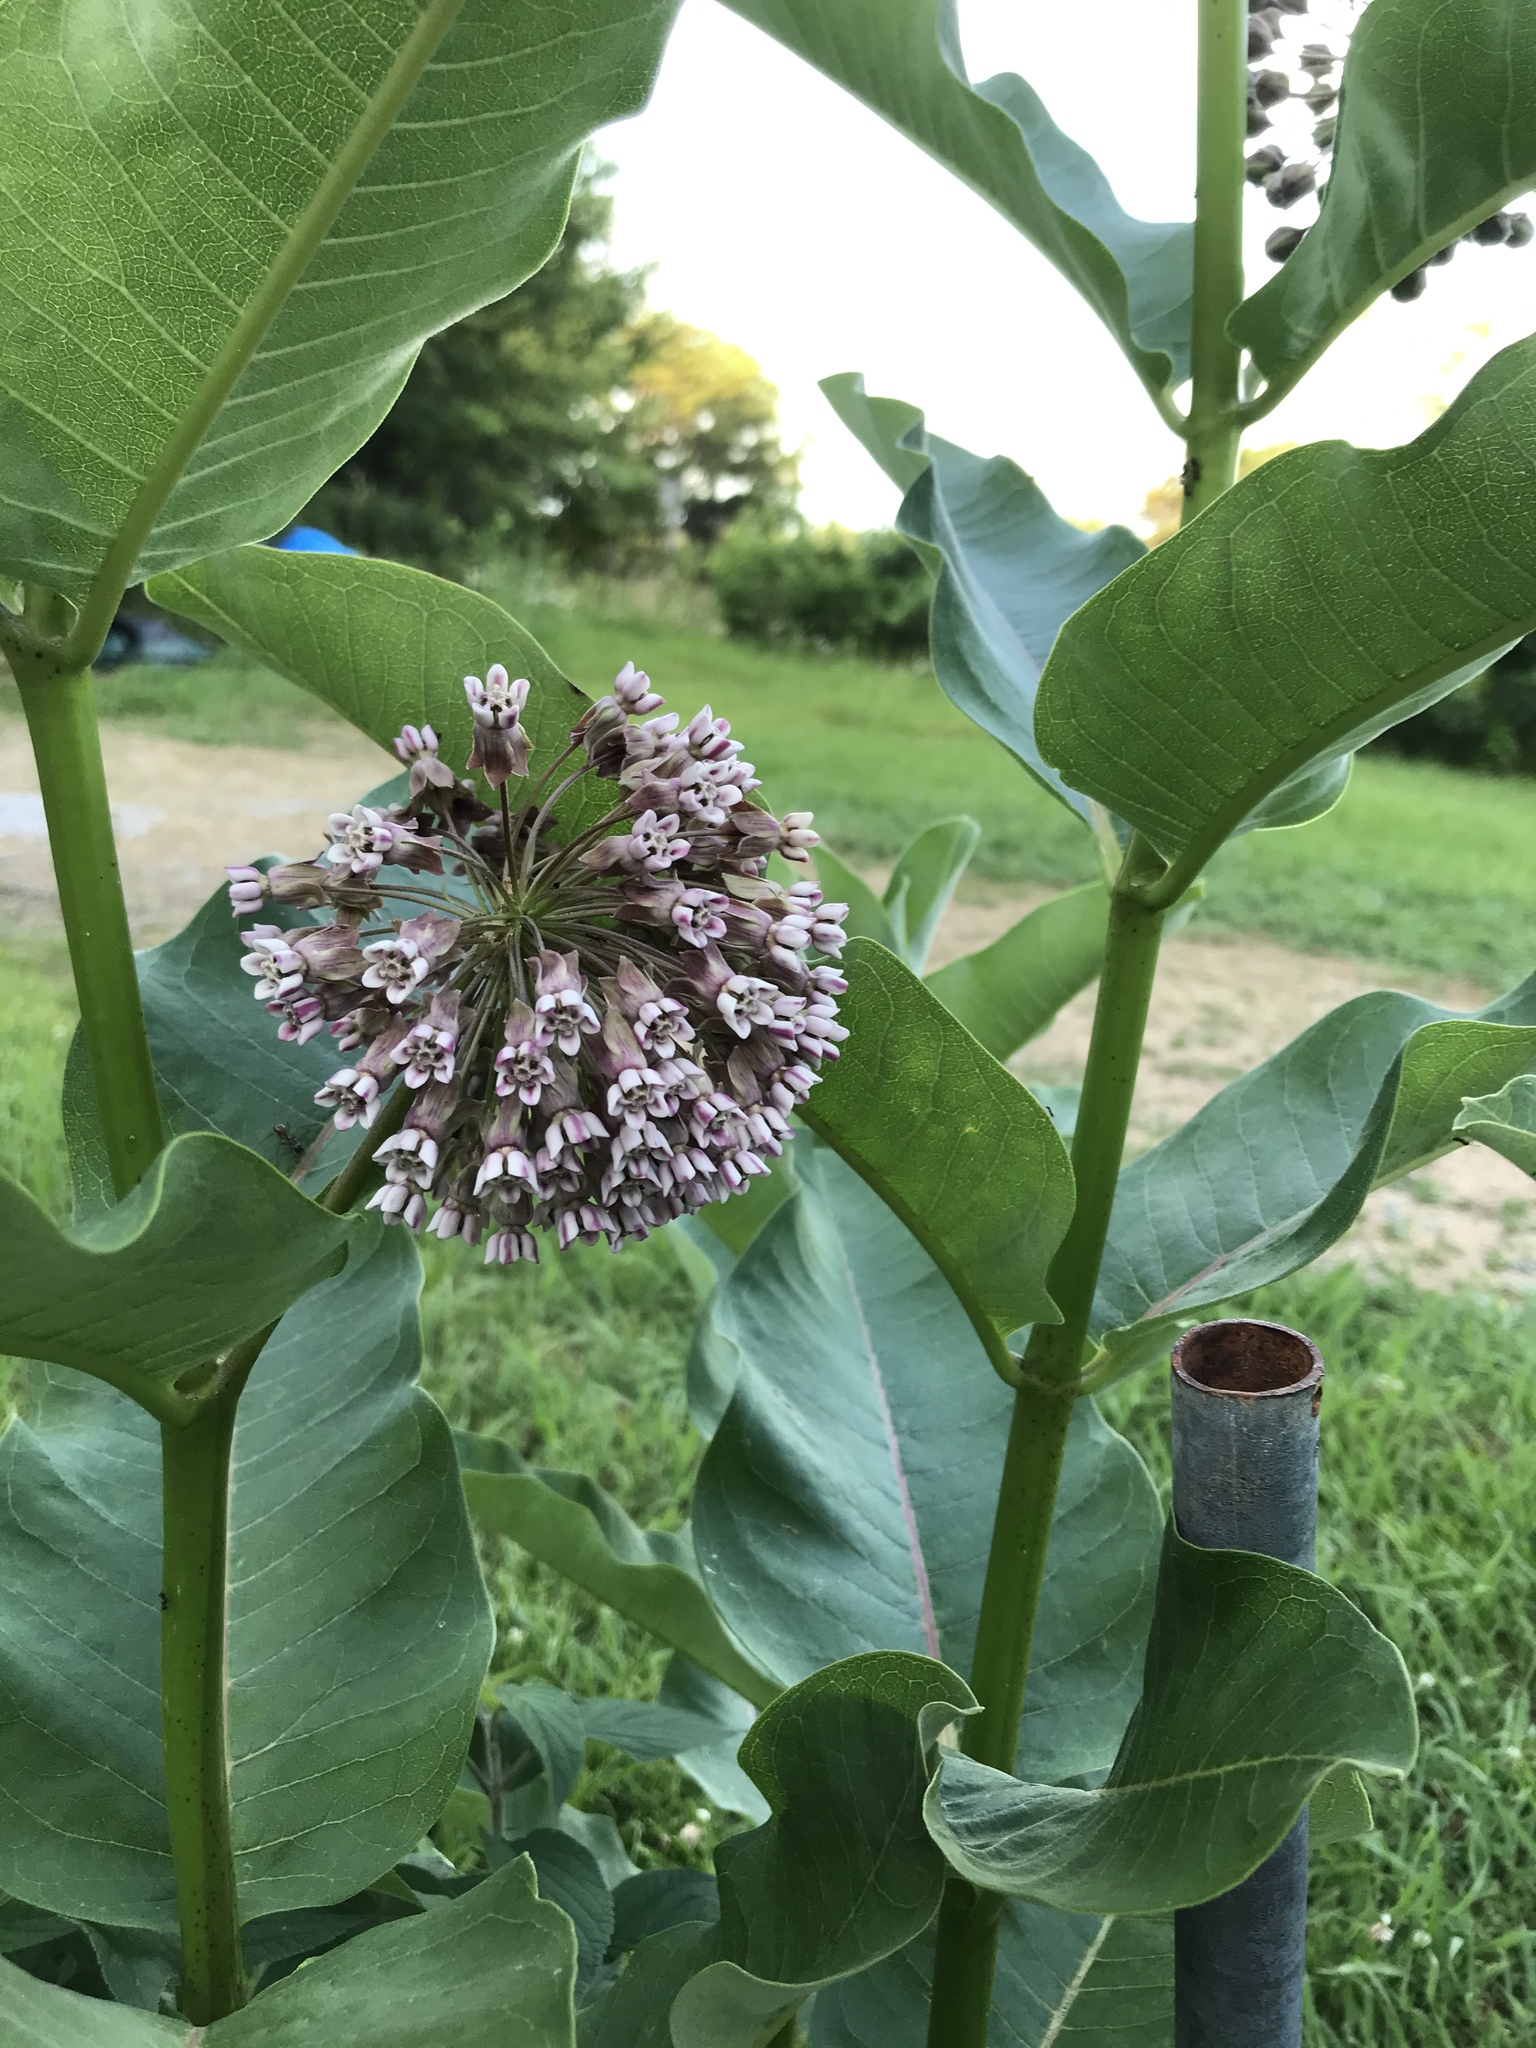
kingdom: Plantae
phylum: Tracheophyta
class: Magnoliopsida
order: Gentianales
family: Apocynaceae
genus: Asclepias
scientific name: Asclepias syriaca
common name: Common milkweed
